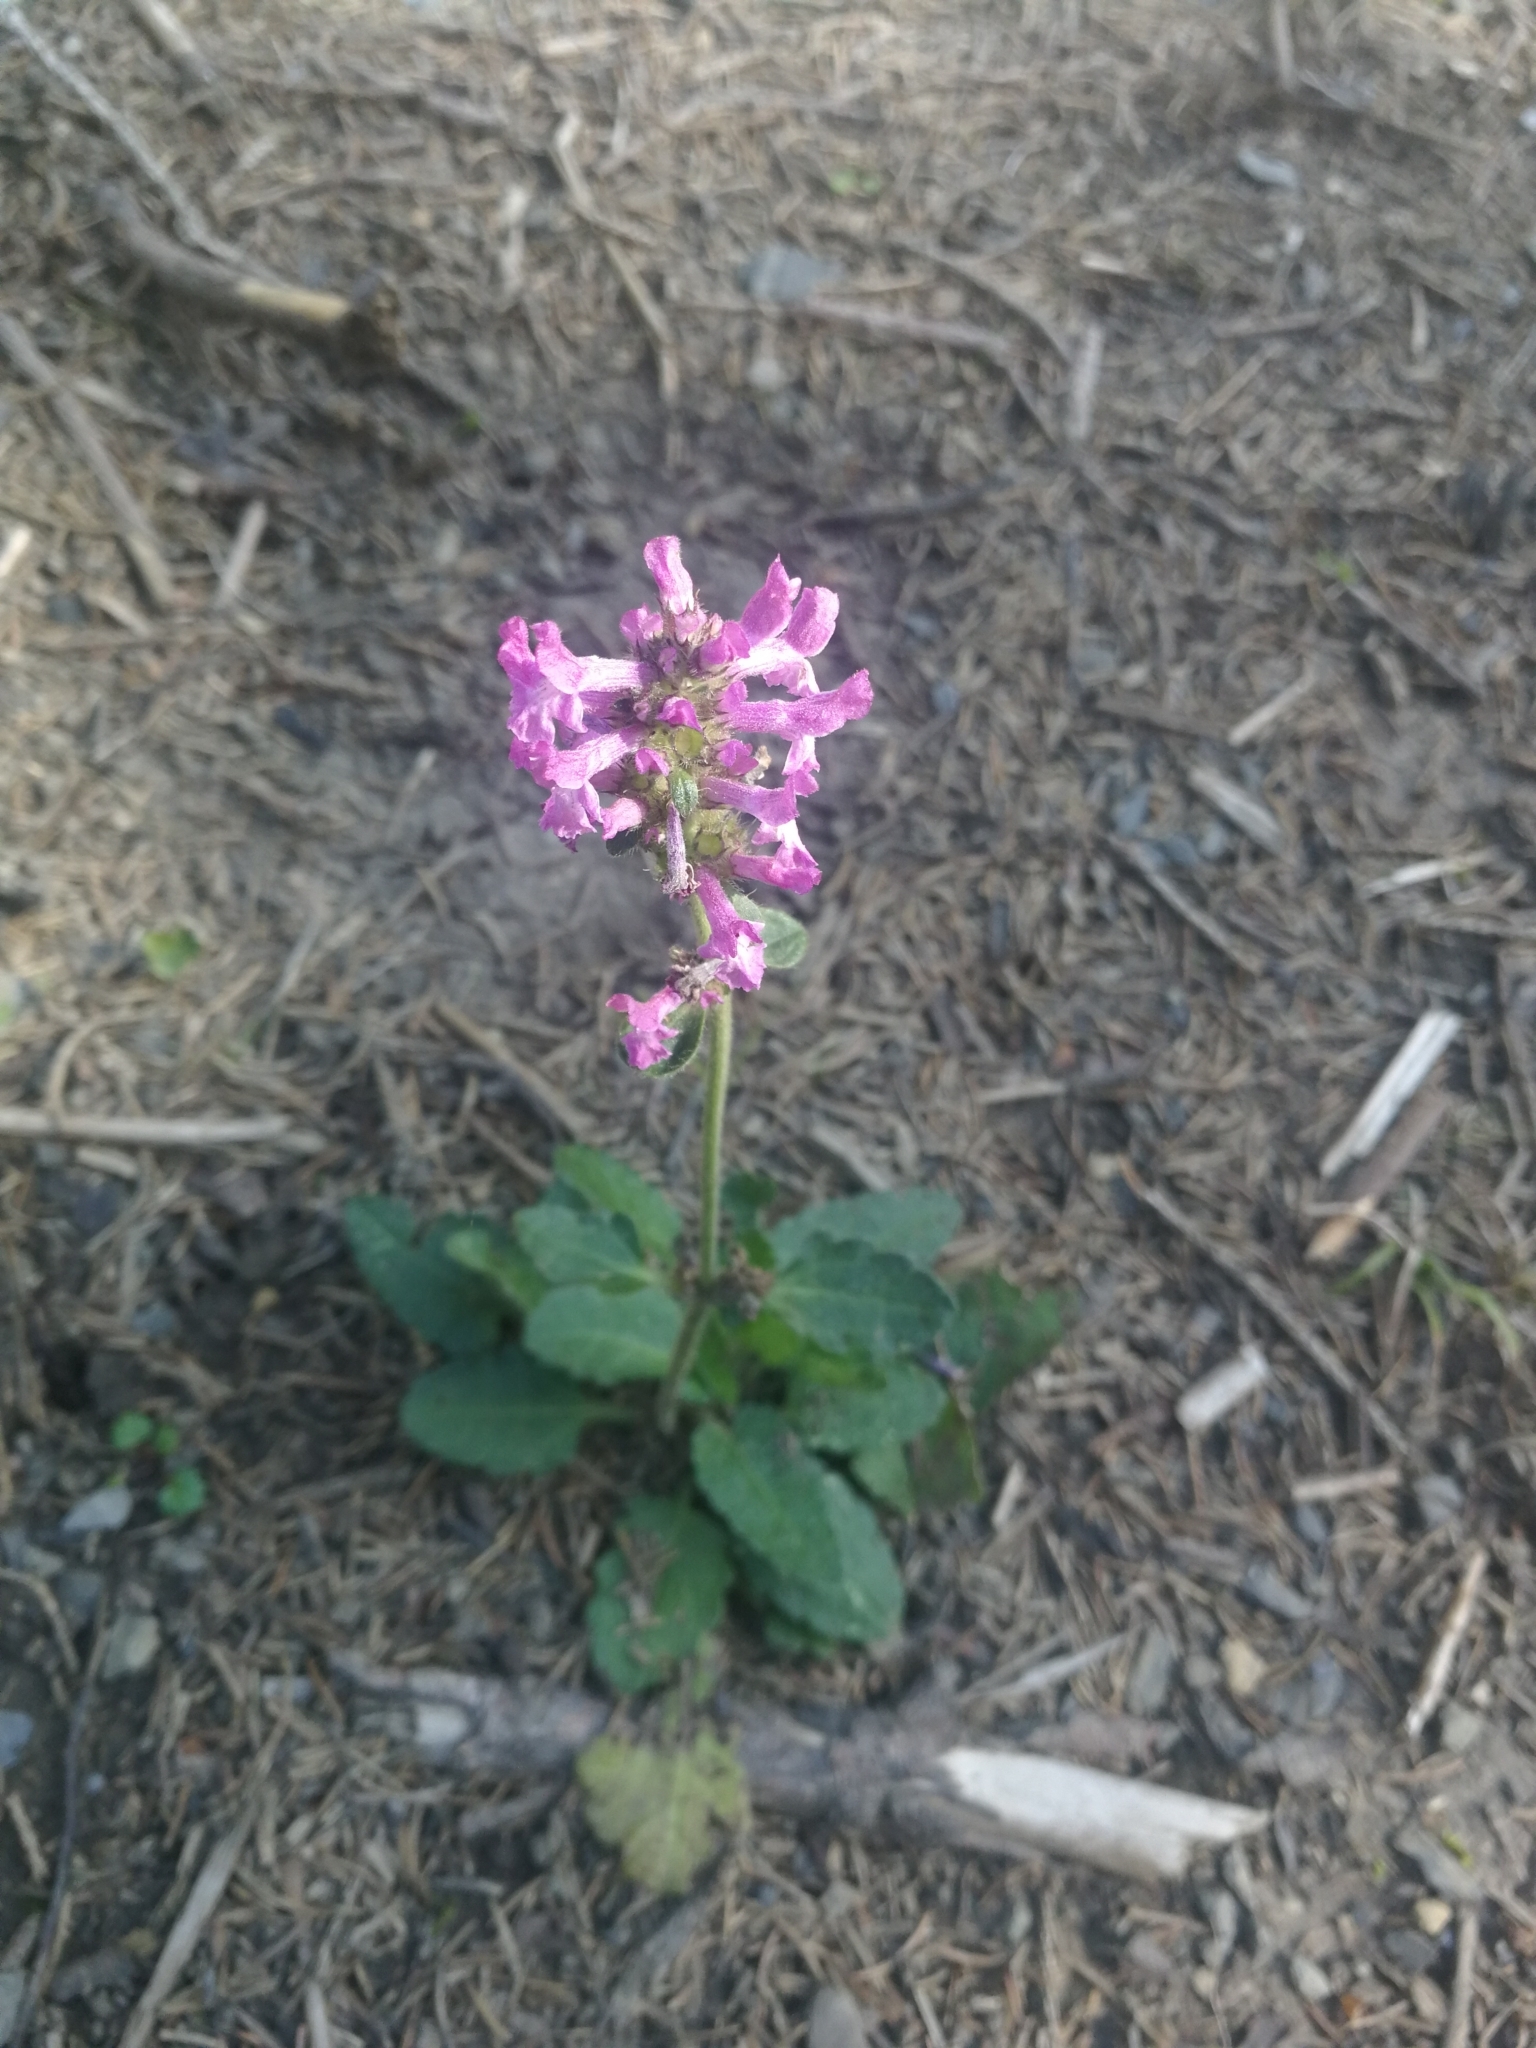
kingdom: Plantae
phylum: Tracheophyta
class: Magnoliopsida
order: Lamiales
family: Lamiaceae
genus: Betonica
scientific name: Betonica officinalis
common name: Bishop's-wort
